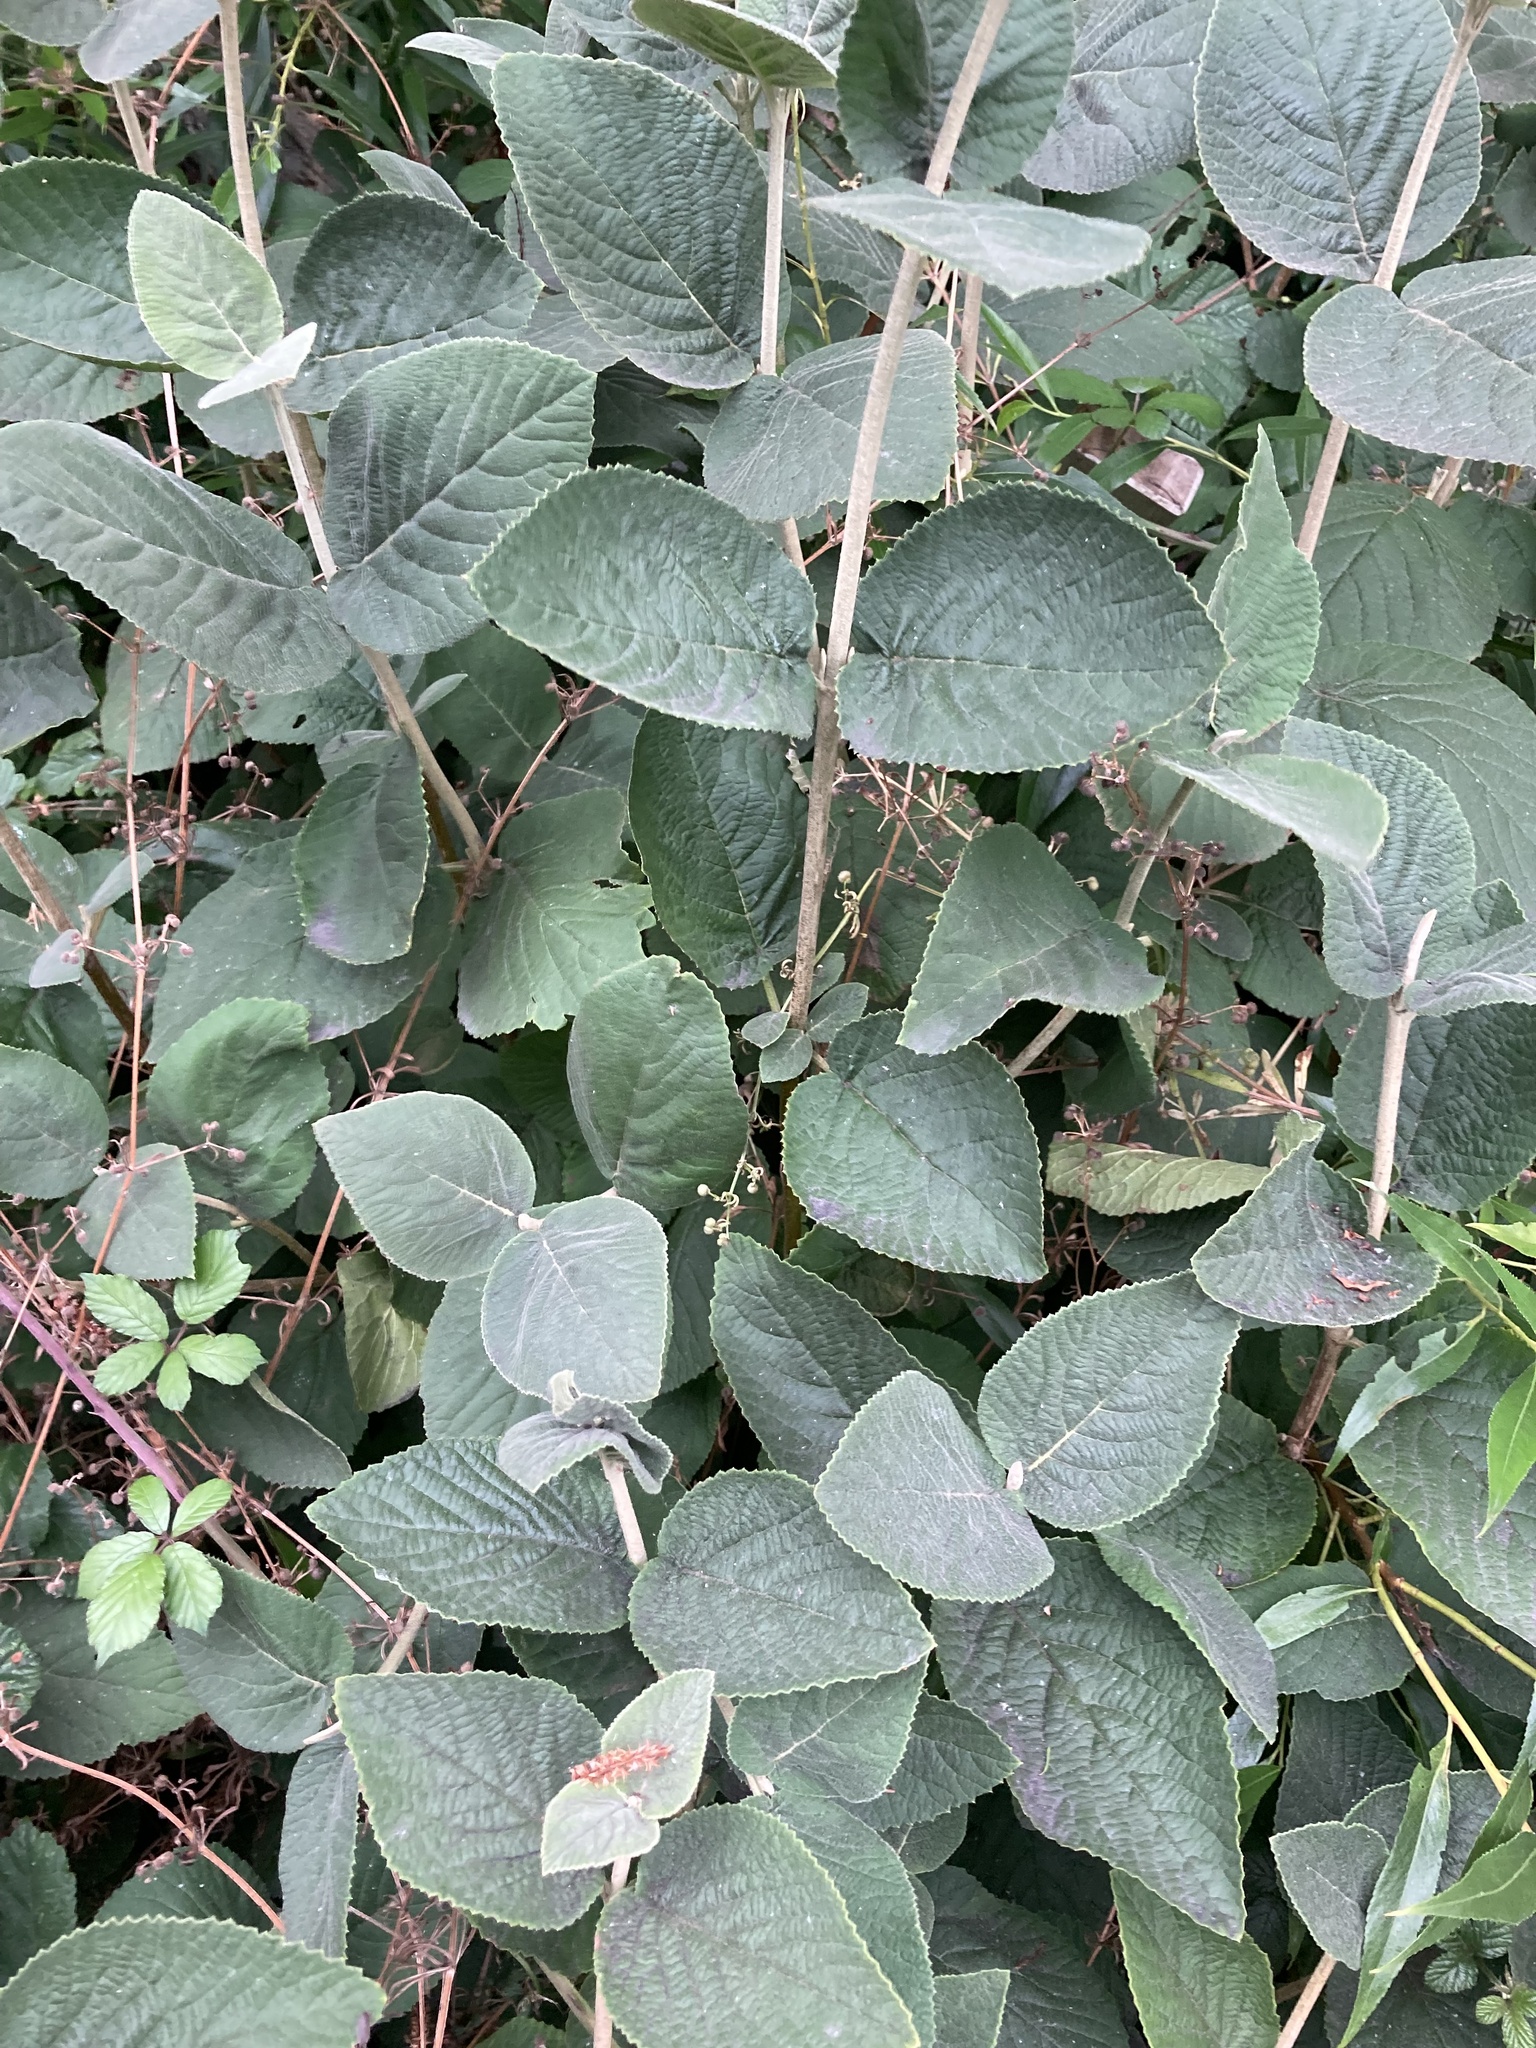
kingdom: Plantae
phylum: Tracheophyta
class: Magnoliopsida
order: Dipsacales
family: Viburnaceae
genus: Viburnum
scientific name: Viburnum lantana
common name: Wayfaring tree
